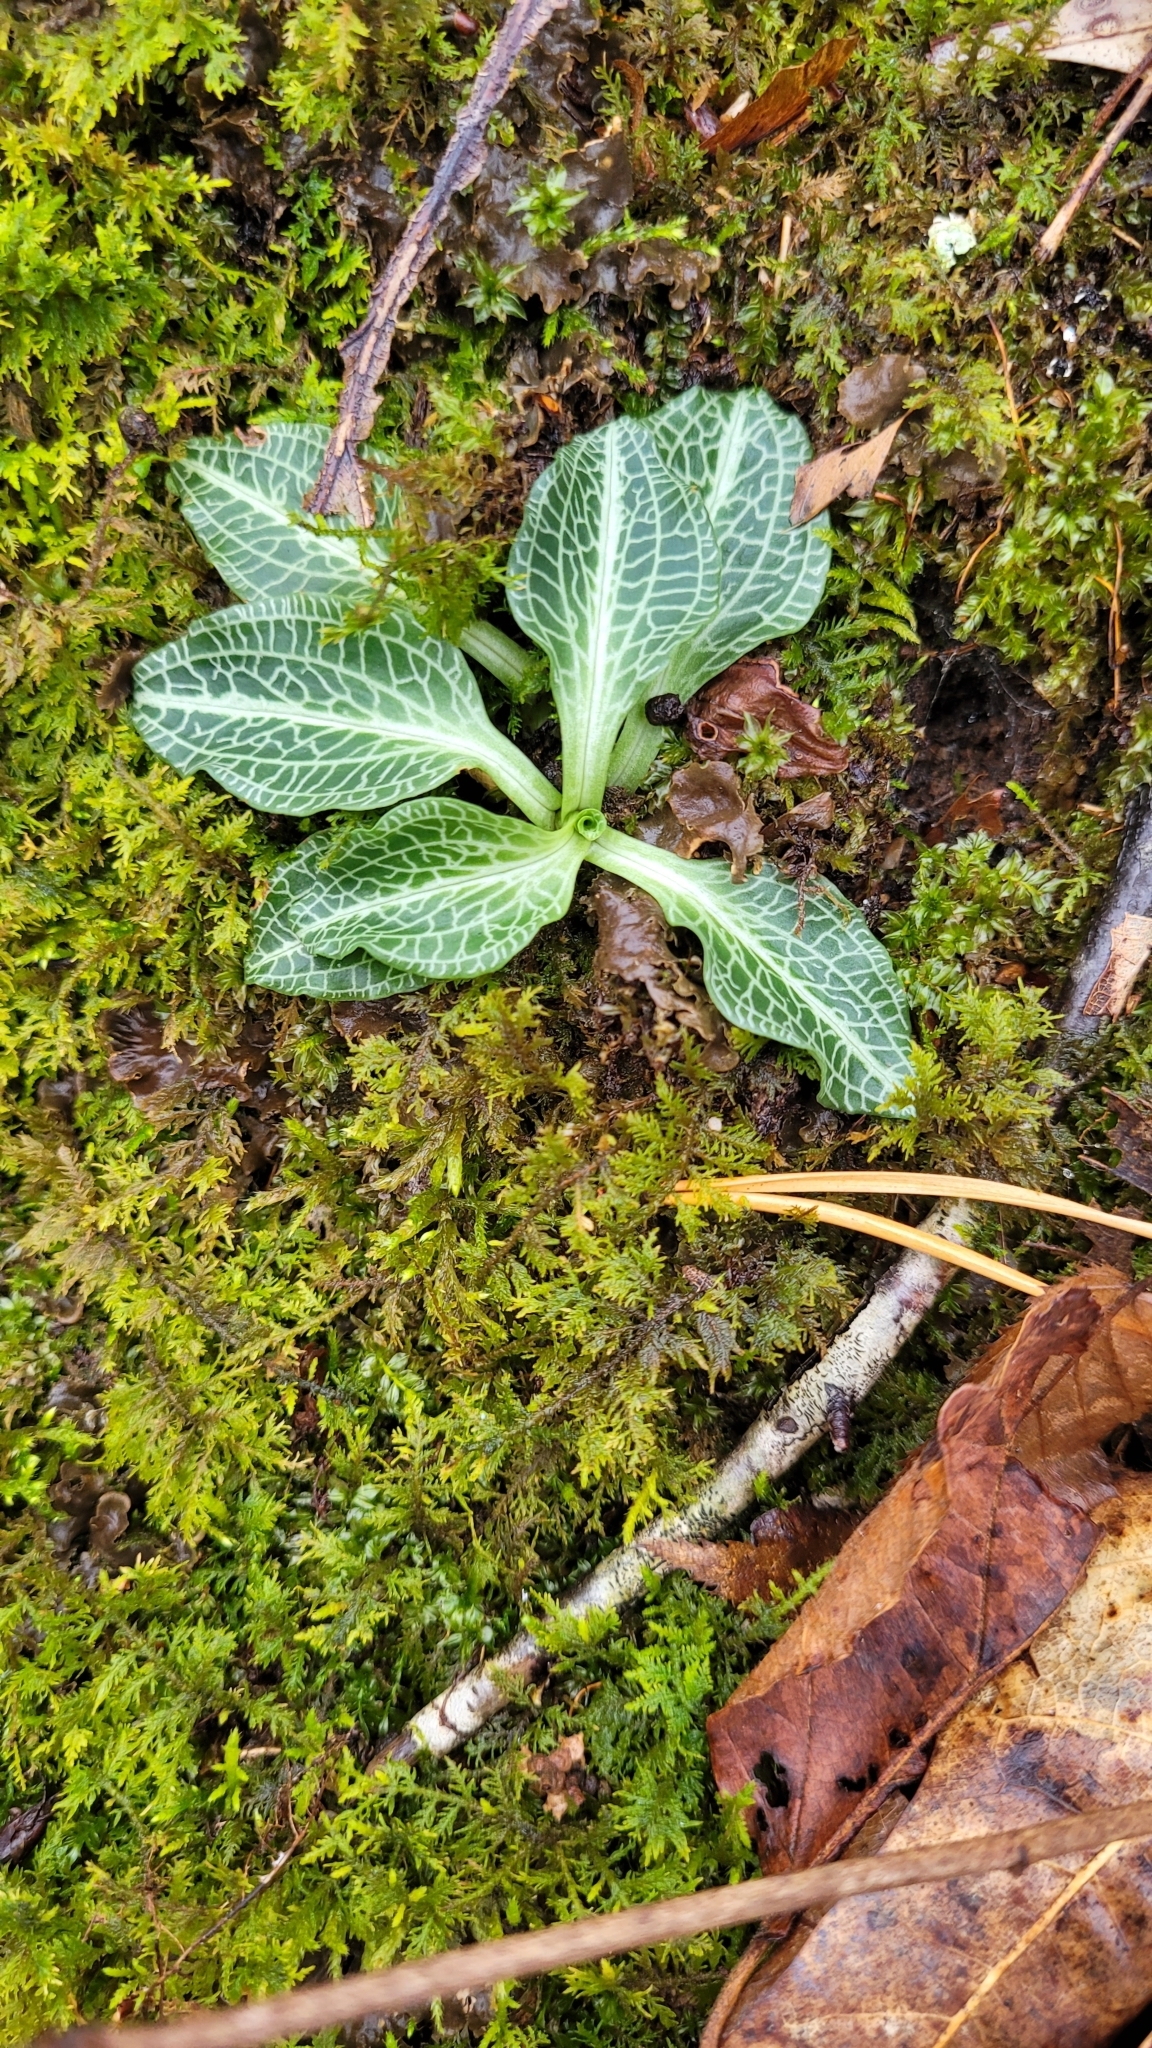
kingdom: Plantae
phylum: Tracheophyta
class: Liliopsida
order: Asparagales
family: Orchidaceae
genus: Goodyera
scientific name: Goodyera pubescens
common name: Downy rattlesnake-plantain
